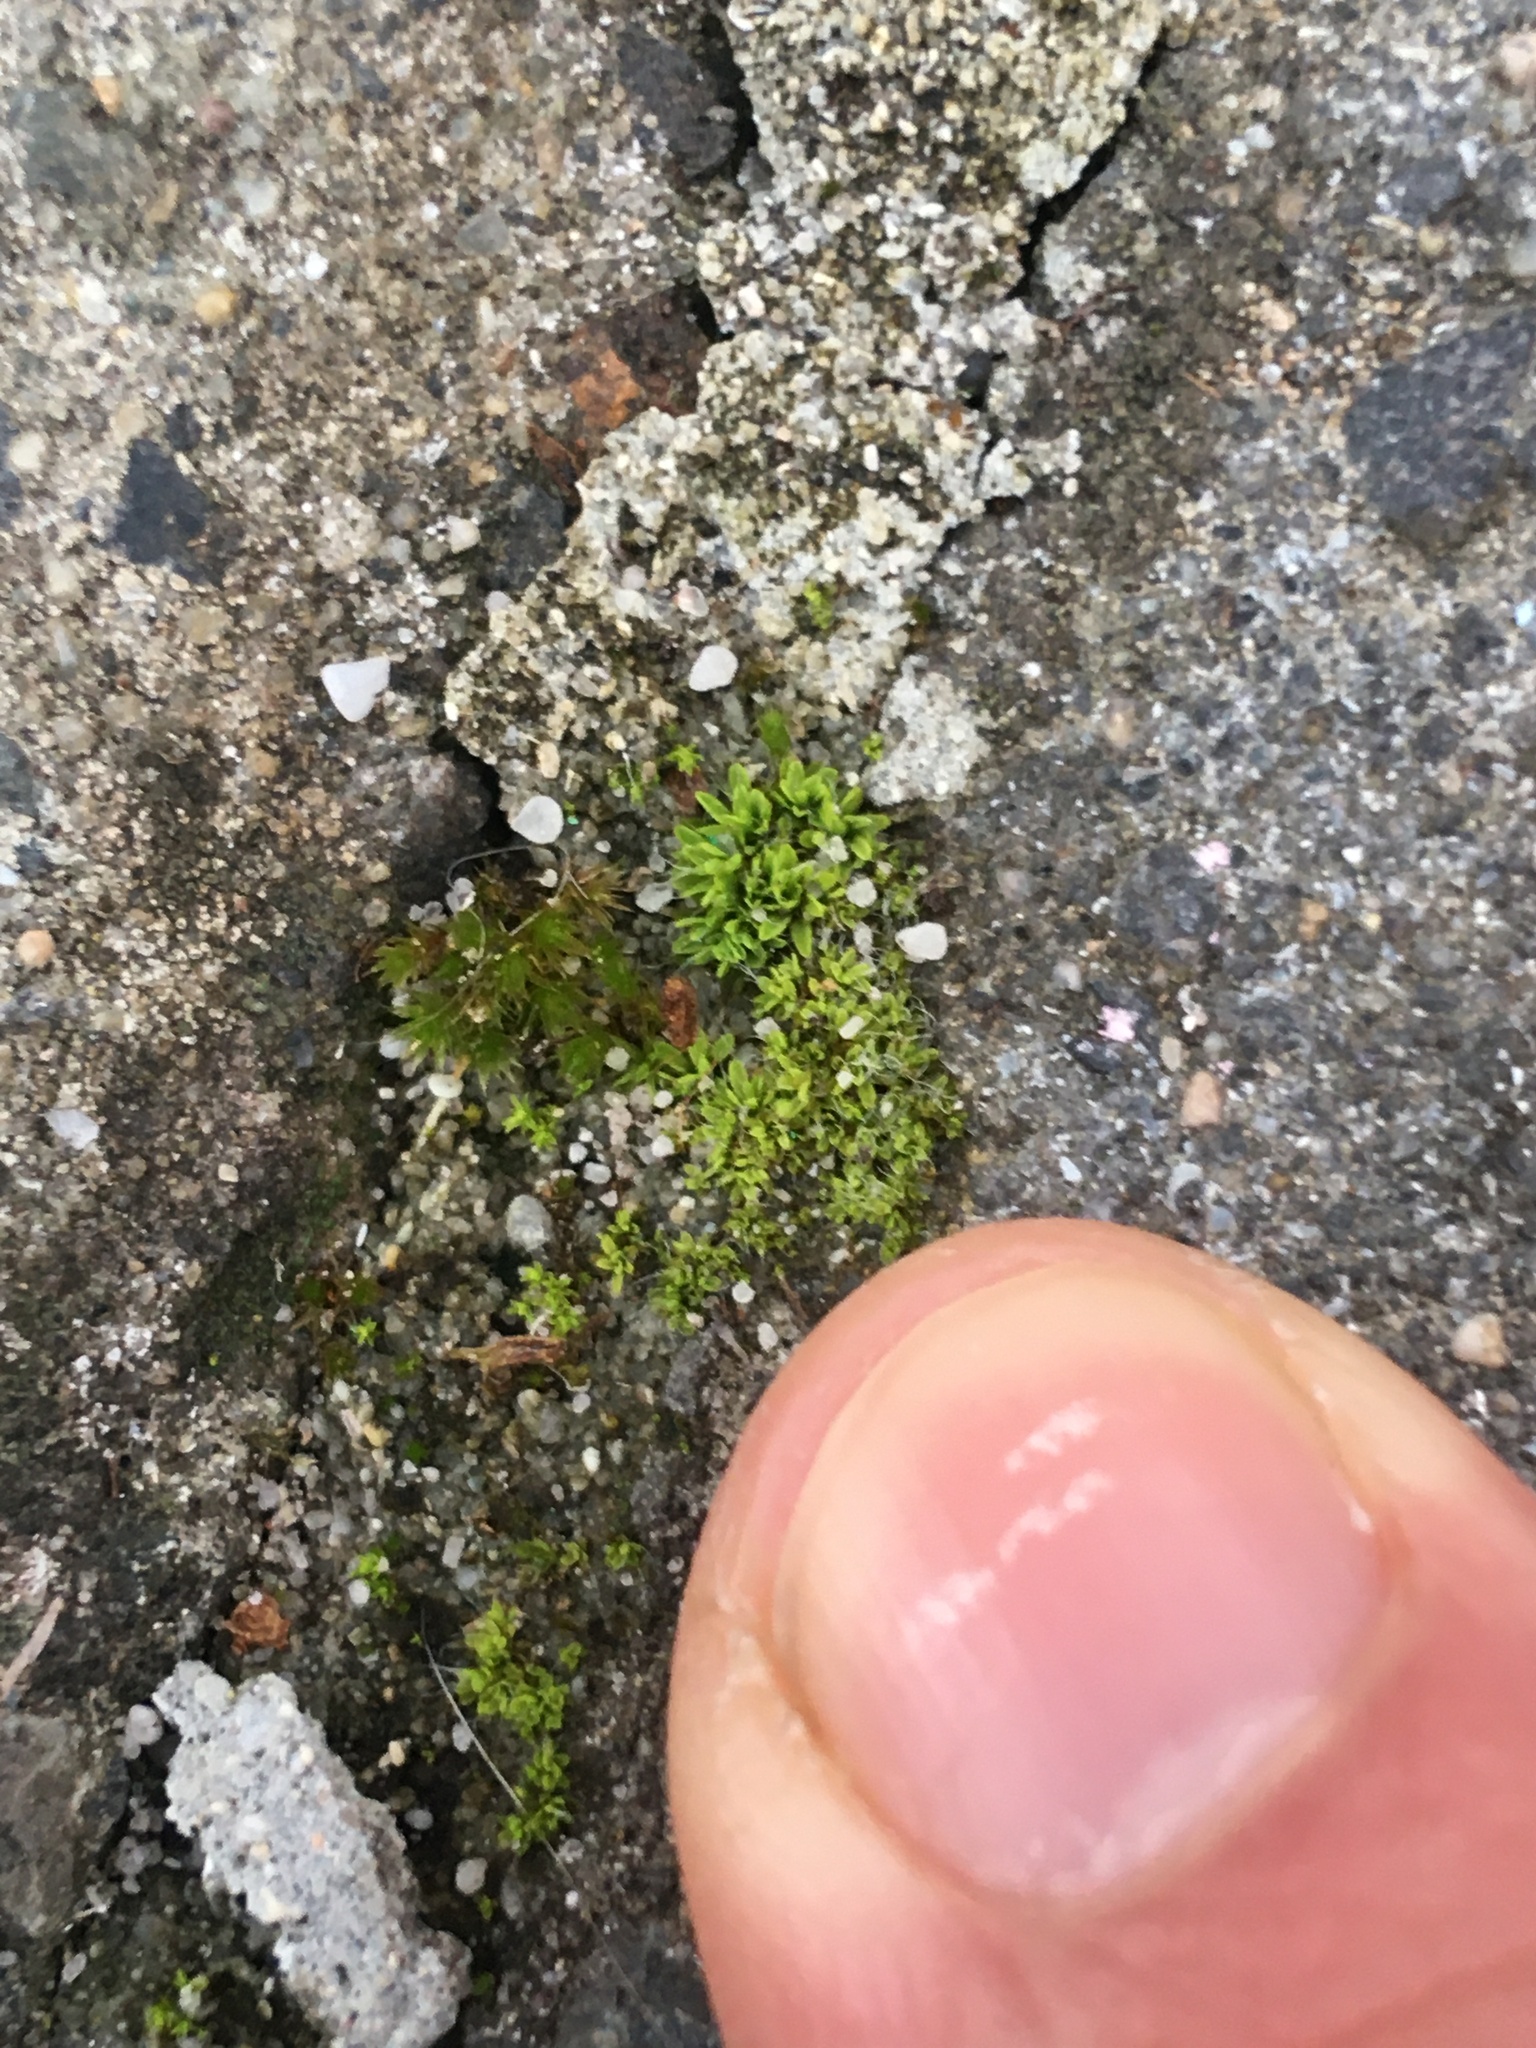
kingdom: Plantae
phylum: Bryophyta
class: Bryopsida
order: Pottiales
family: Pottiaceae
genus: Tortula
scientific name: Tortula muralis
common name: Wall screw-moss
